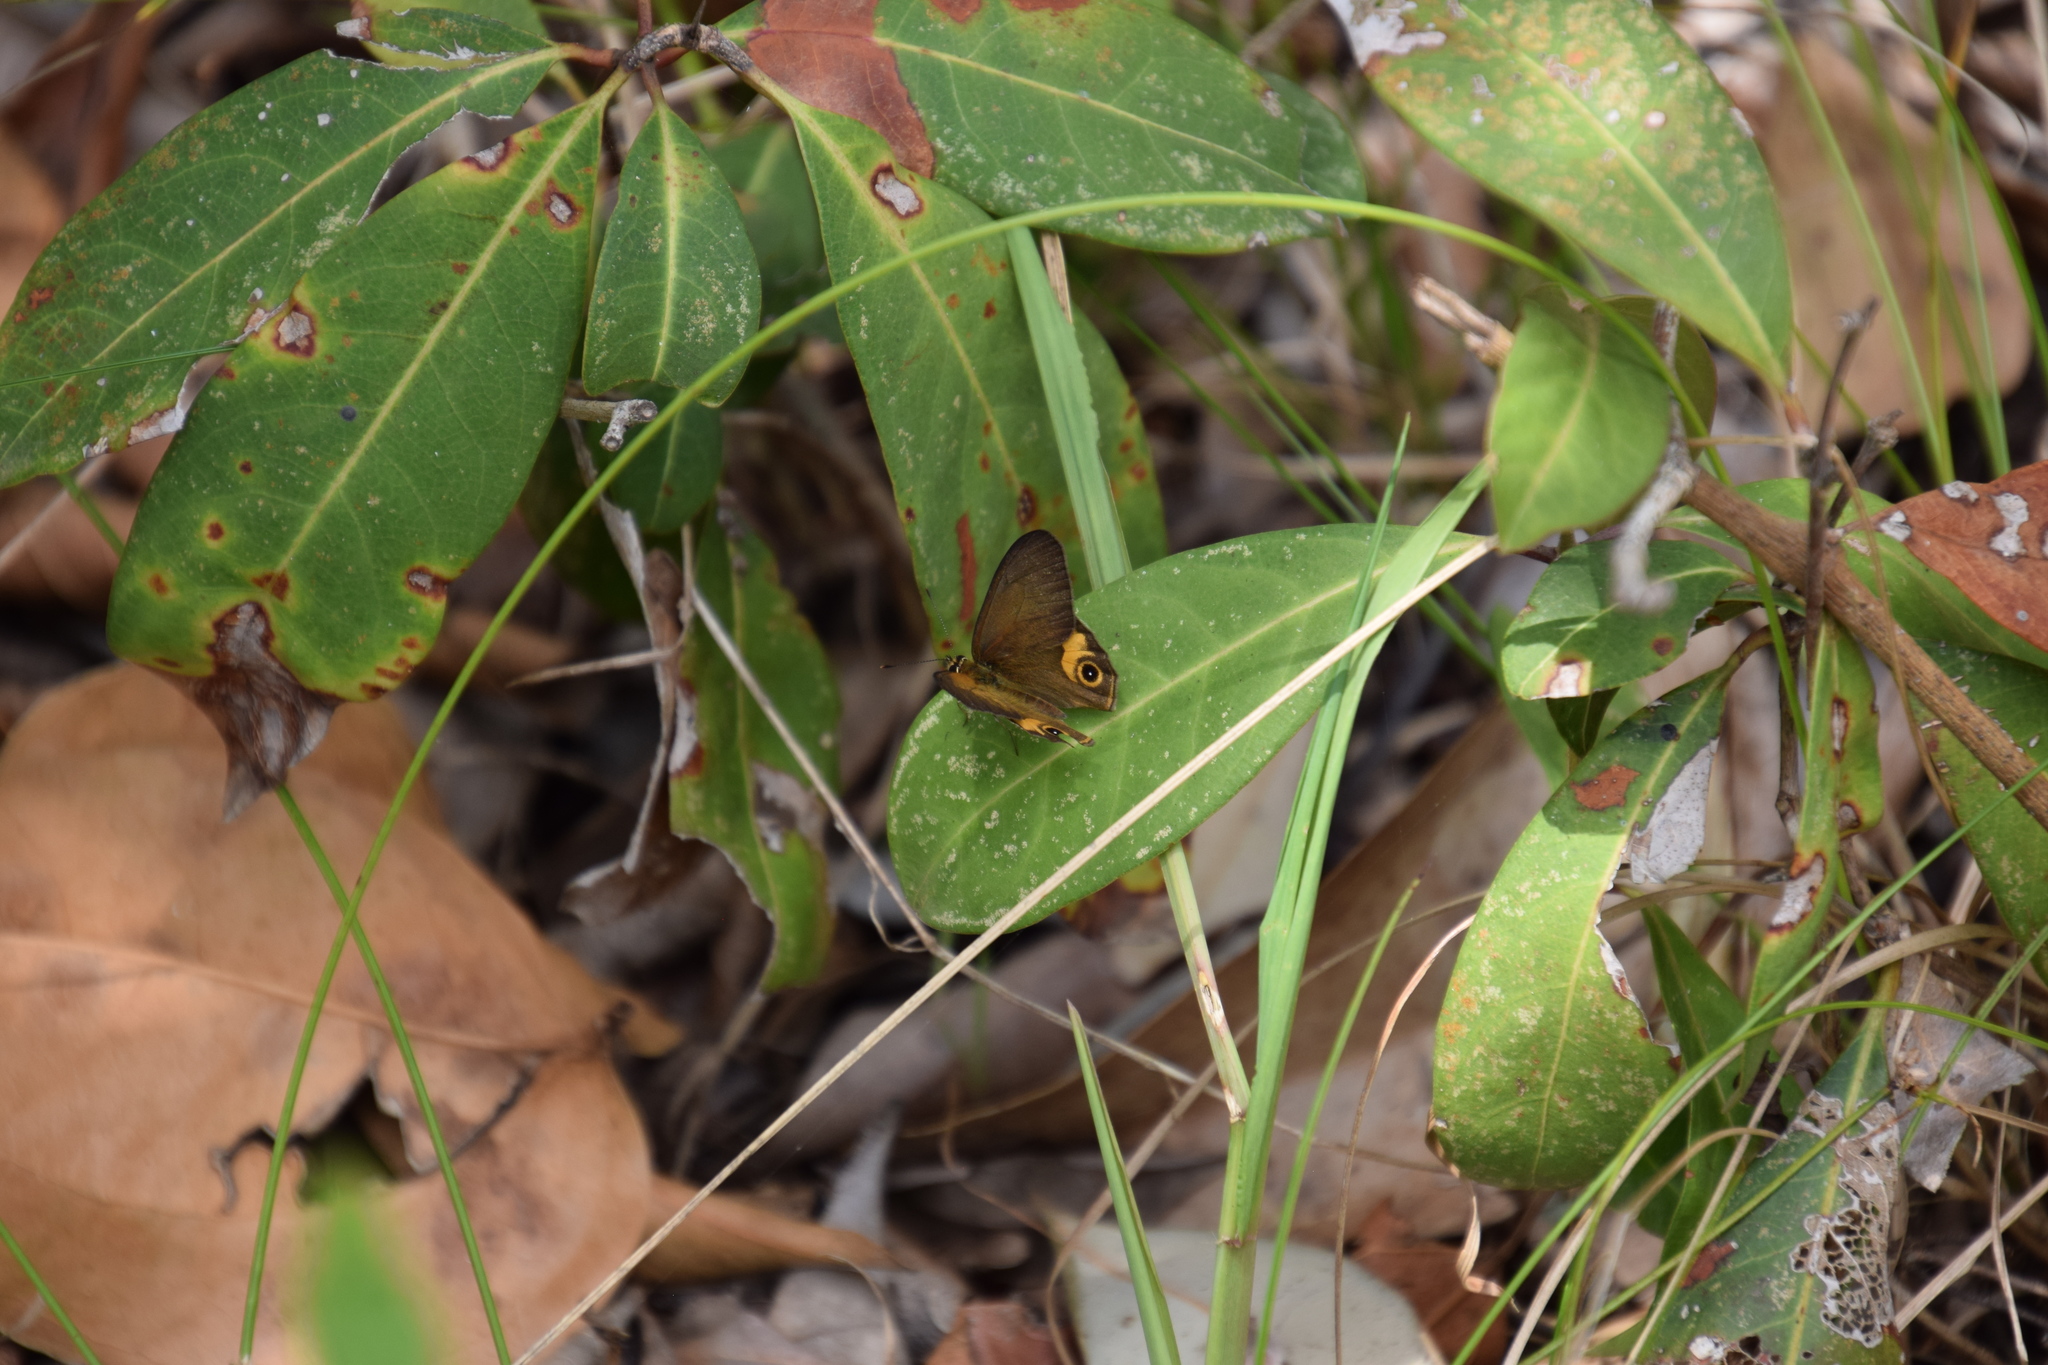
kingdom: Animalia
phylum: Arthropoda
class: Insecta
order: Lepidoptera
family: Nymphalidae
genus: Hypocysta
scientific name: Hypocysta metirius
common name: Brown ringlet
